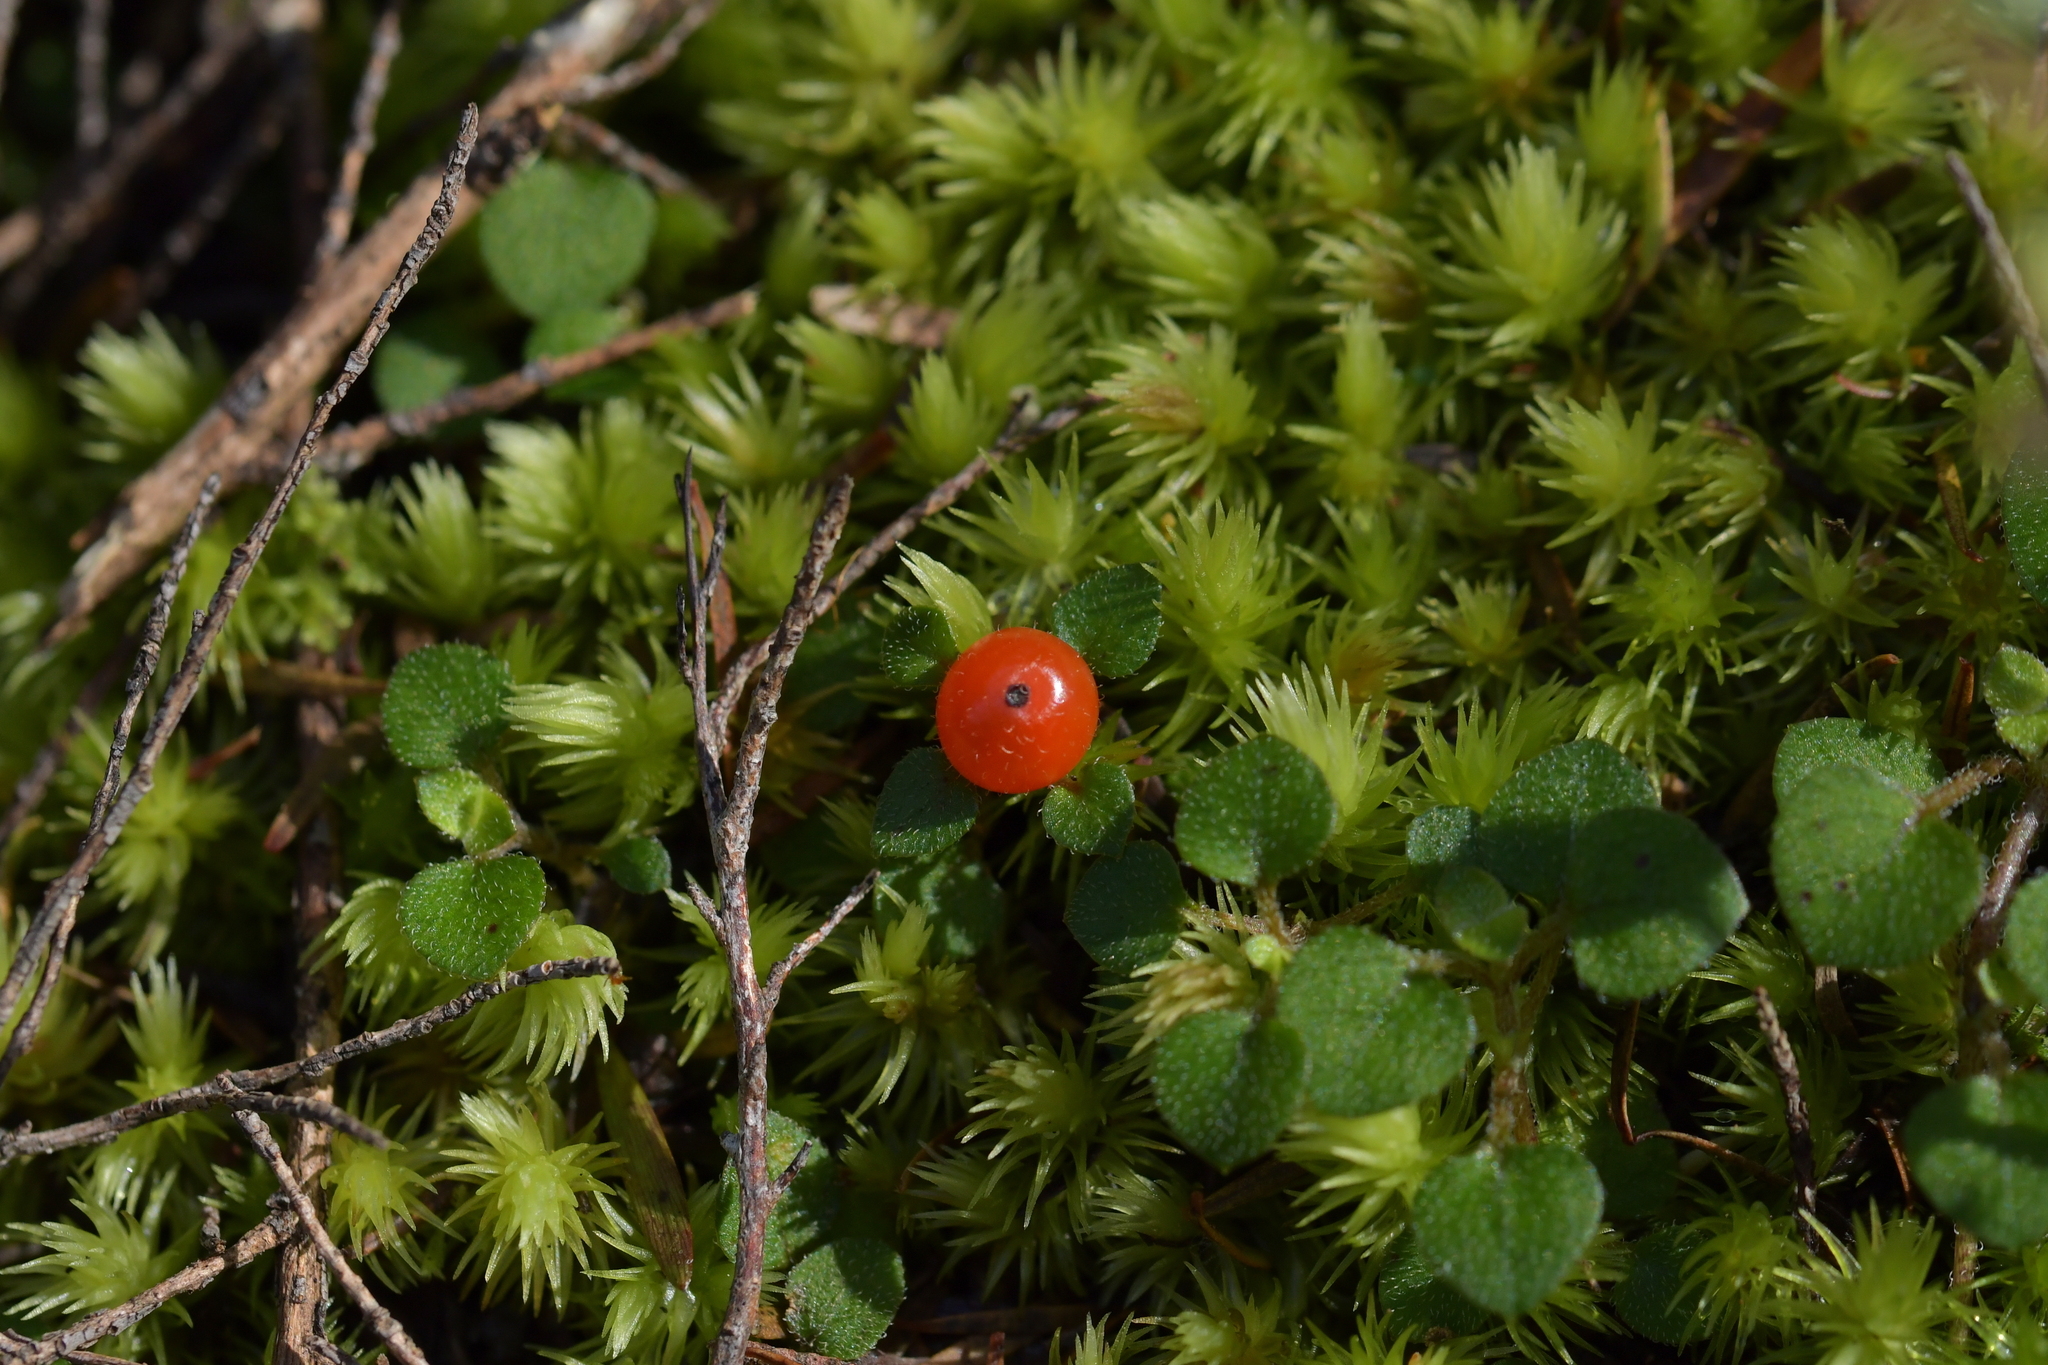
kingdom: Plantae
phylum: Tracheophyta
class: Magnoliopsida
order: Gentianales
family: Rubiaceae
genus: Nertera
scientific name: Nertera dichondrifolia
